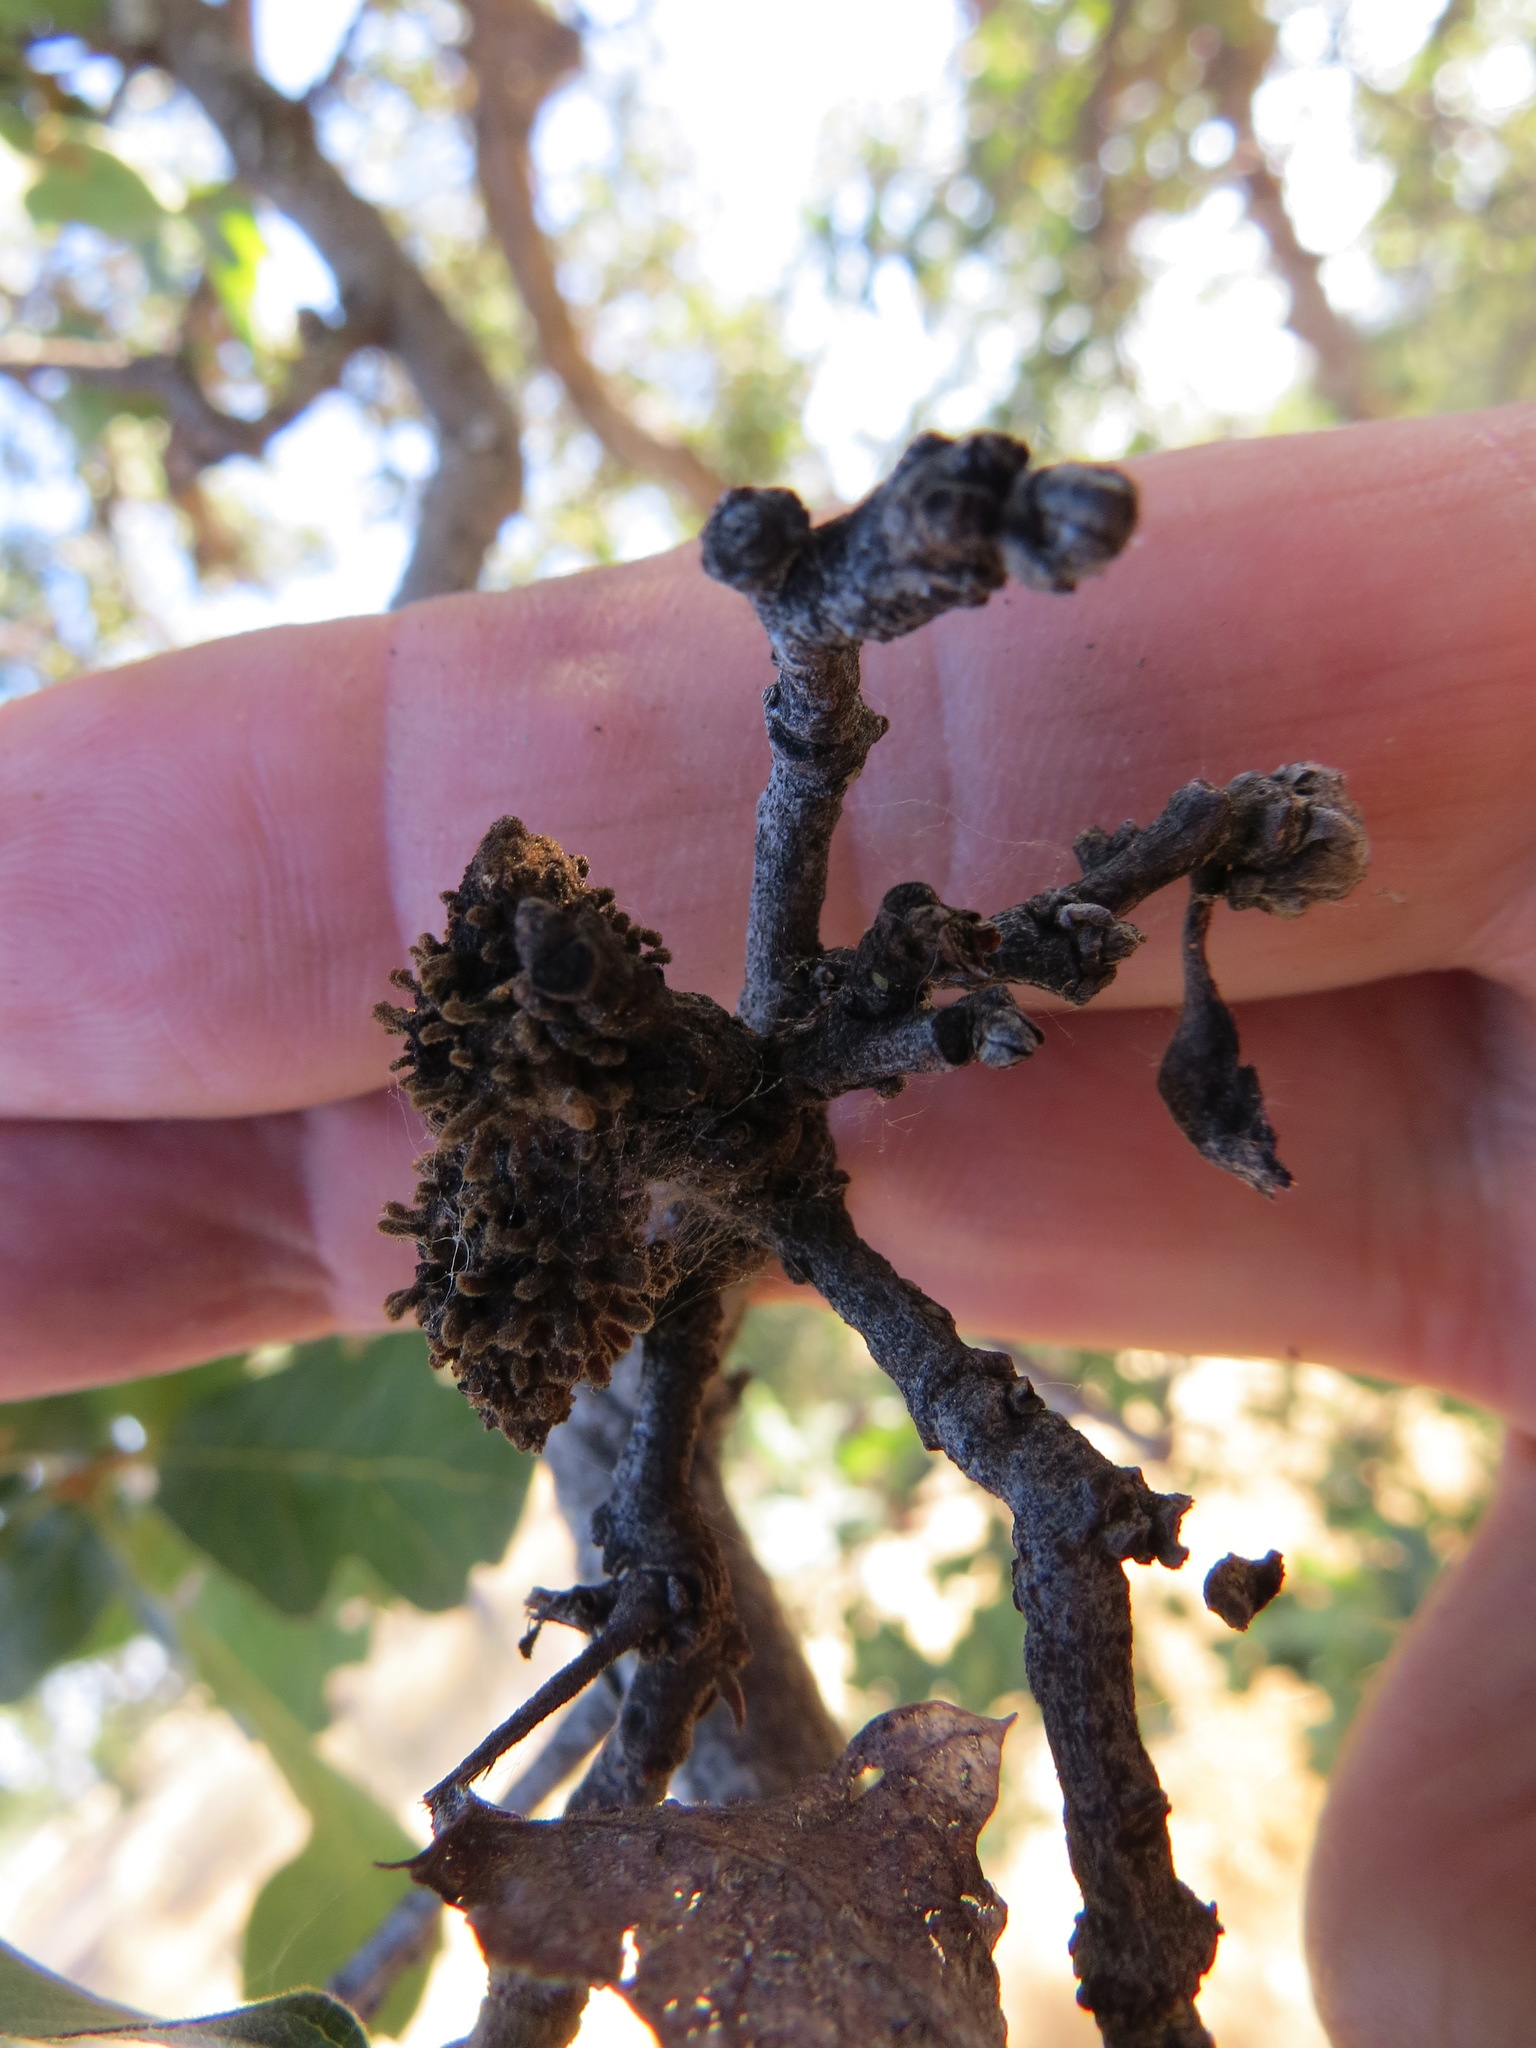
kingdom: Animalia
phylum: Arthropoda
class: Insecta
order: Hymenoptera
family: Cynipidae
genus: Burnettweldia
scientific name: Burnettweldia
